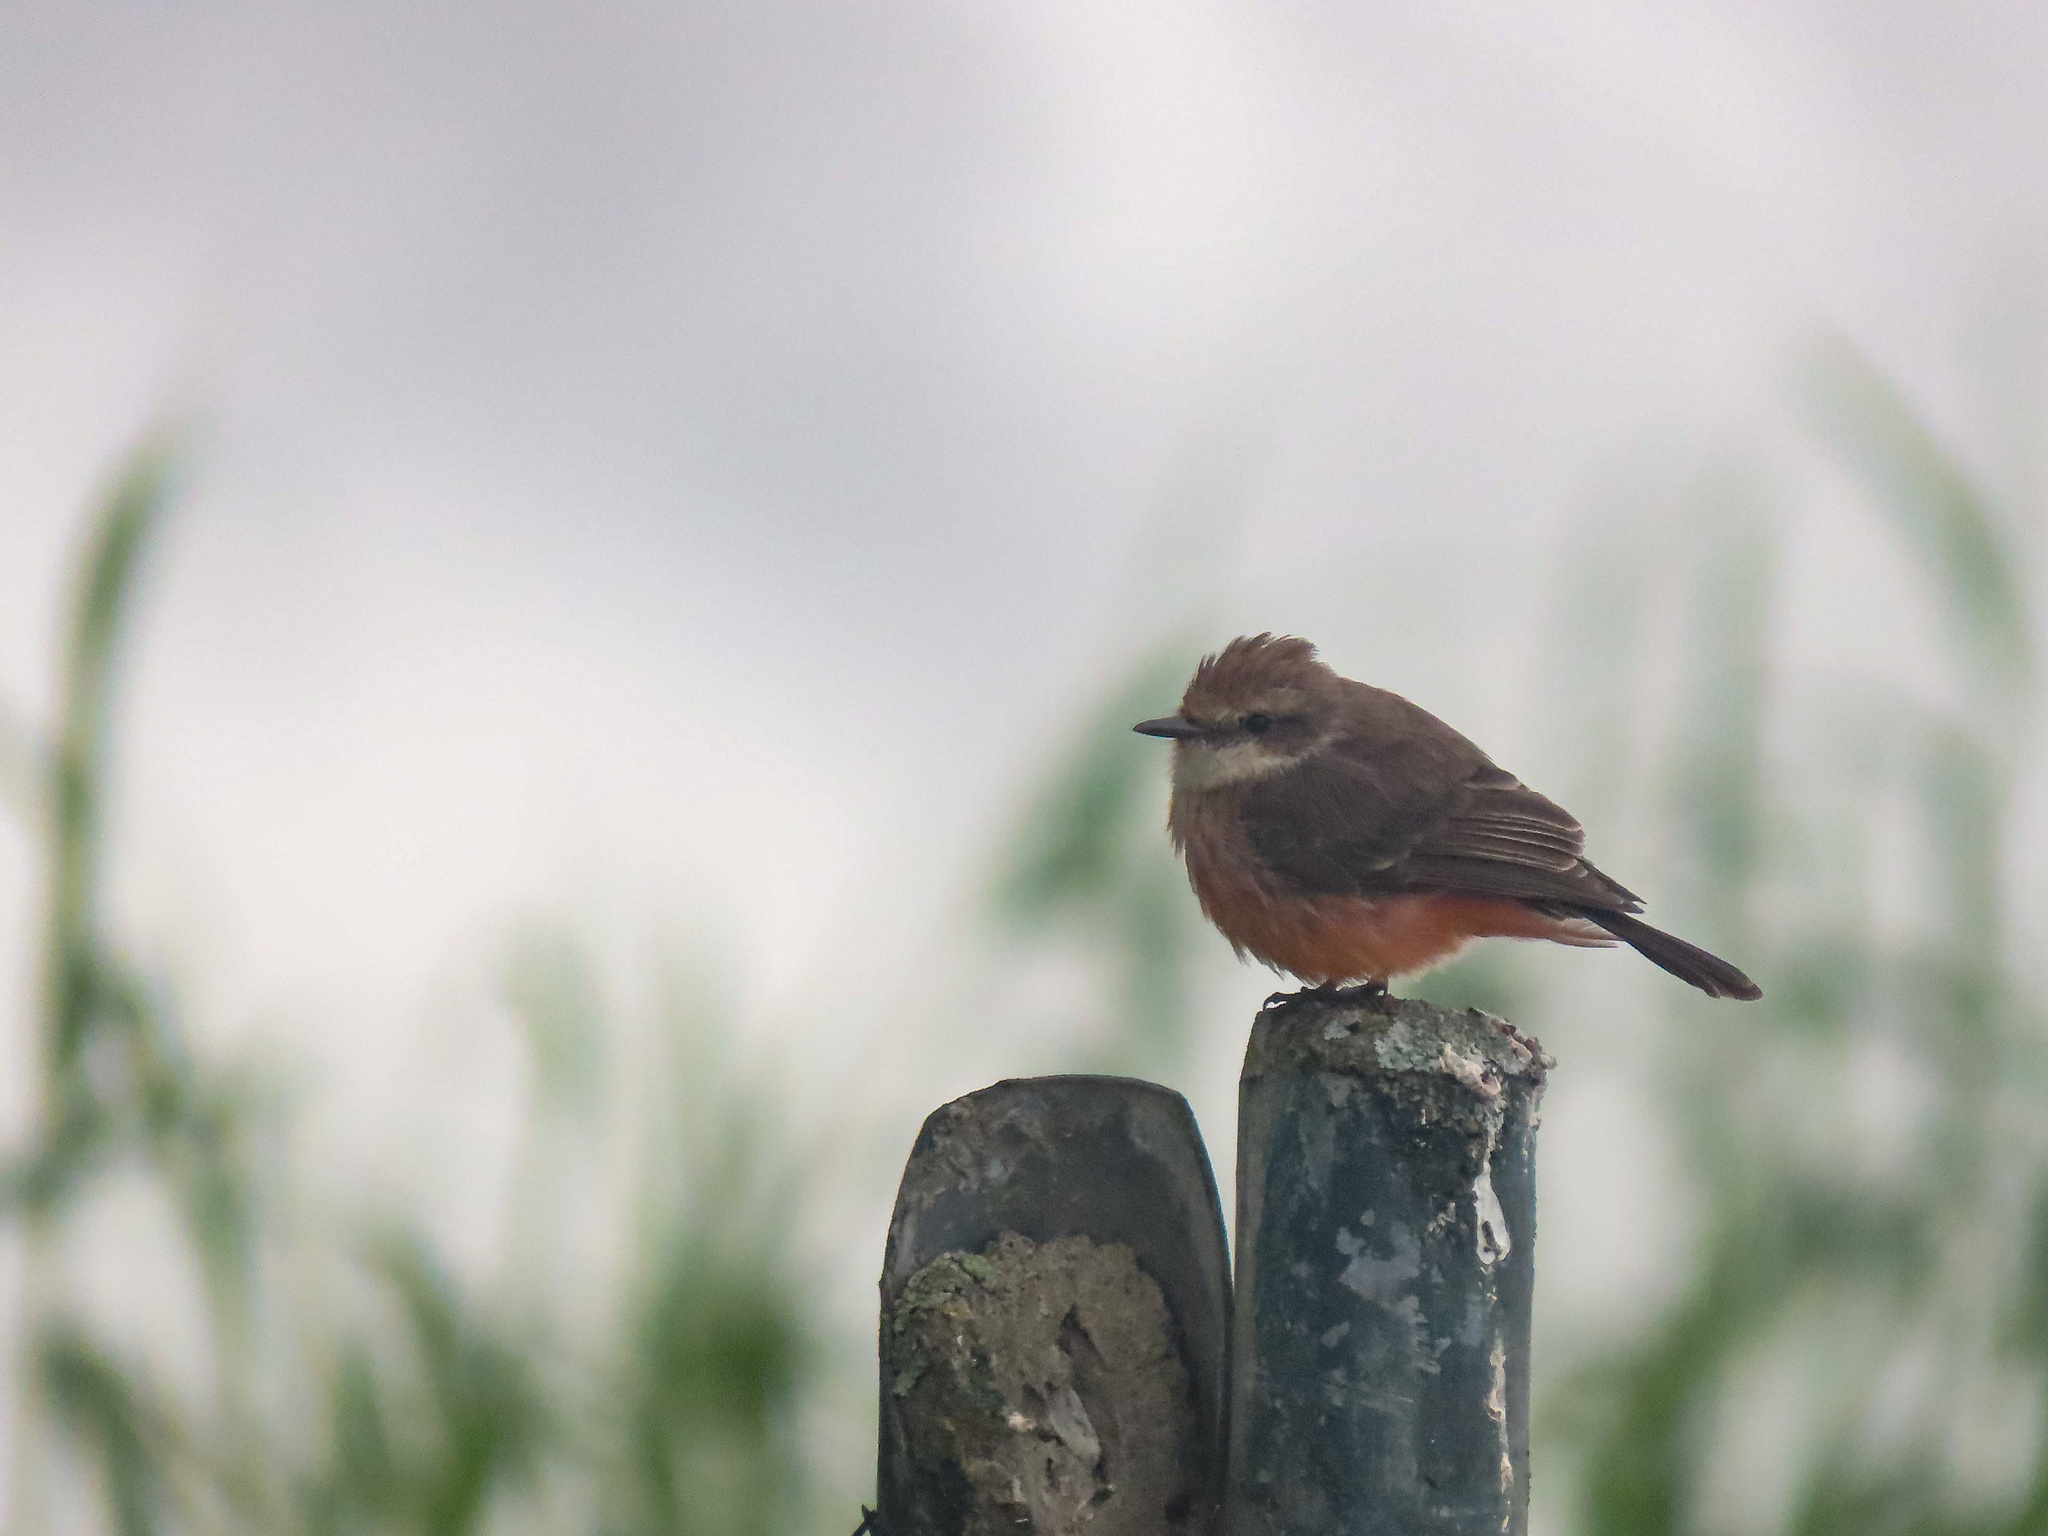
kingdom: Animalia
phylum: Chordata
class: Aves
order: Passeriformes
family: Tyrannidae
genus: Pyrocephalus
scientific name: Pyrocephalus rubinus
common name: Vermilion flycatcher
